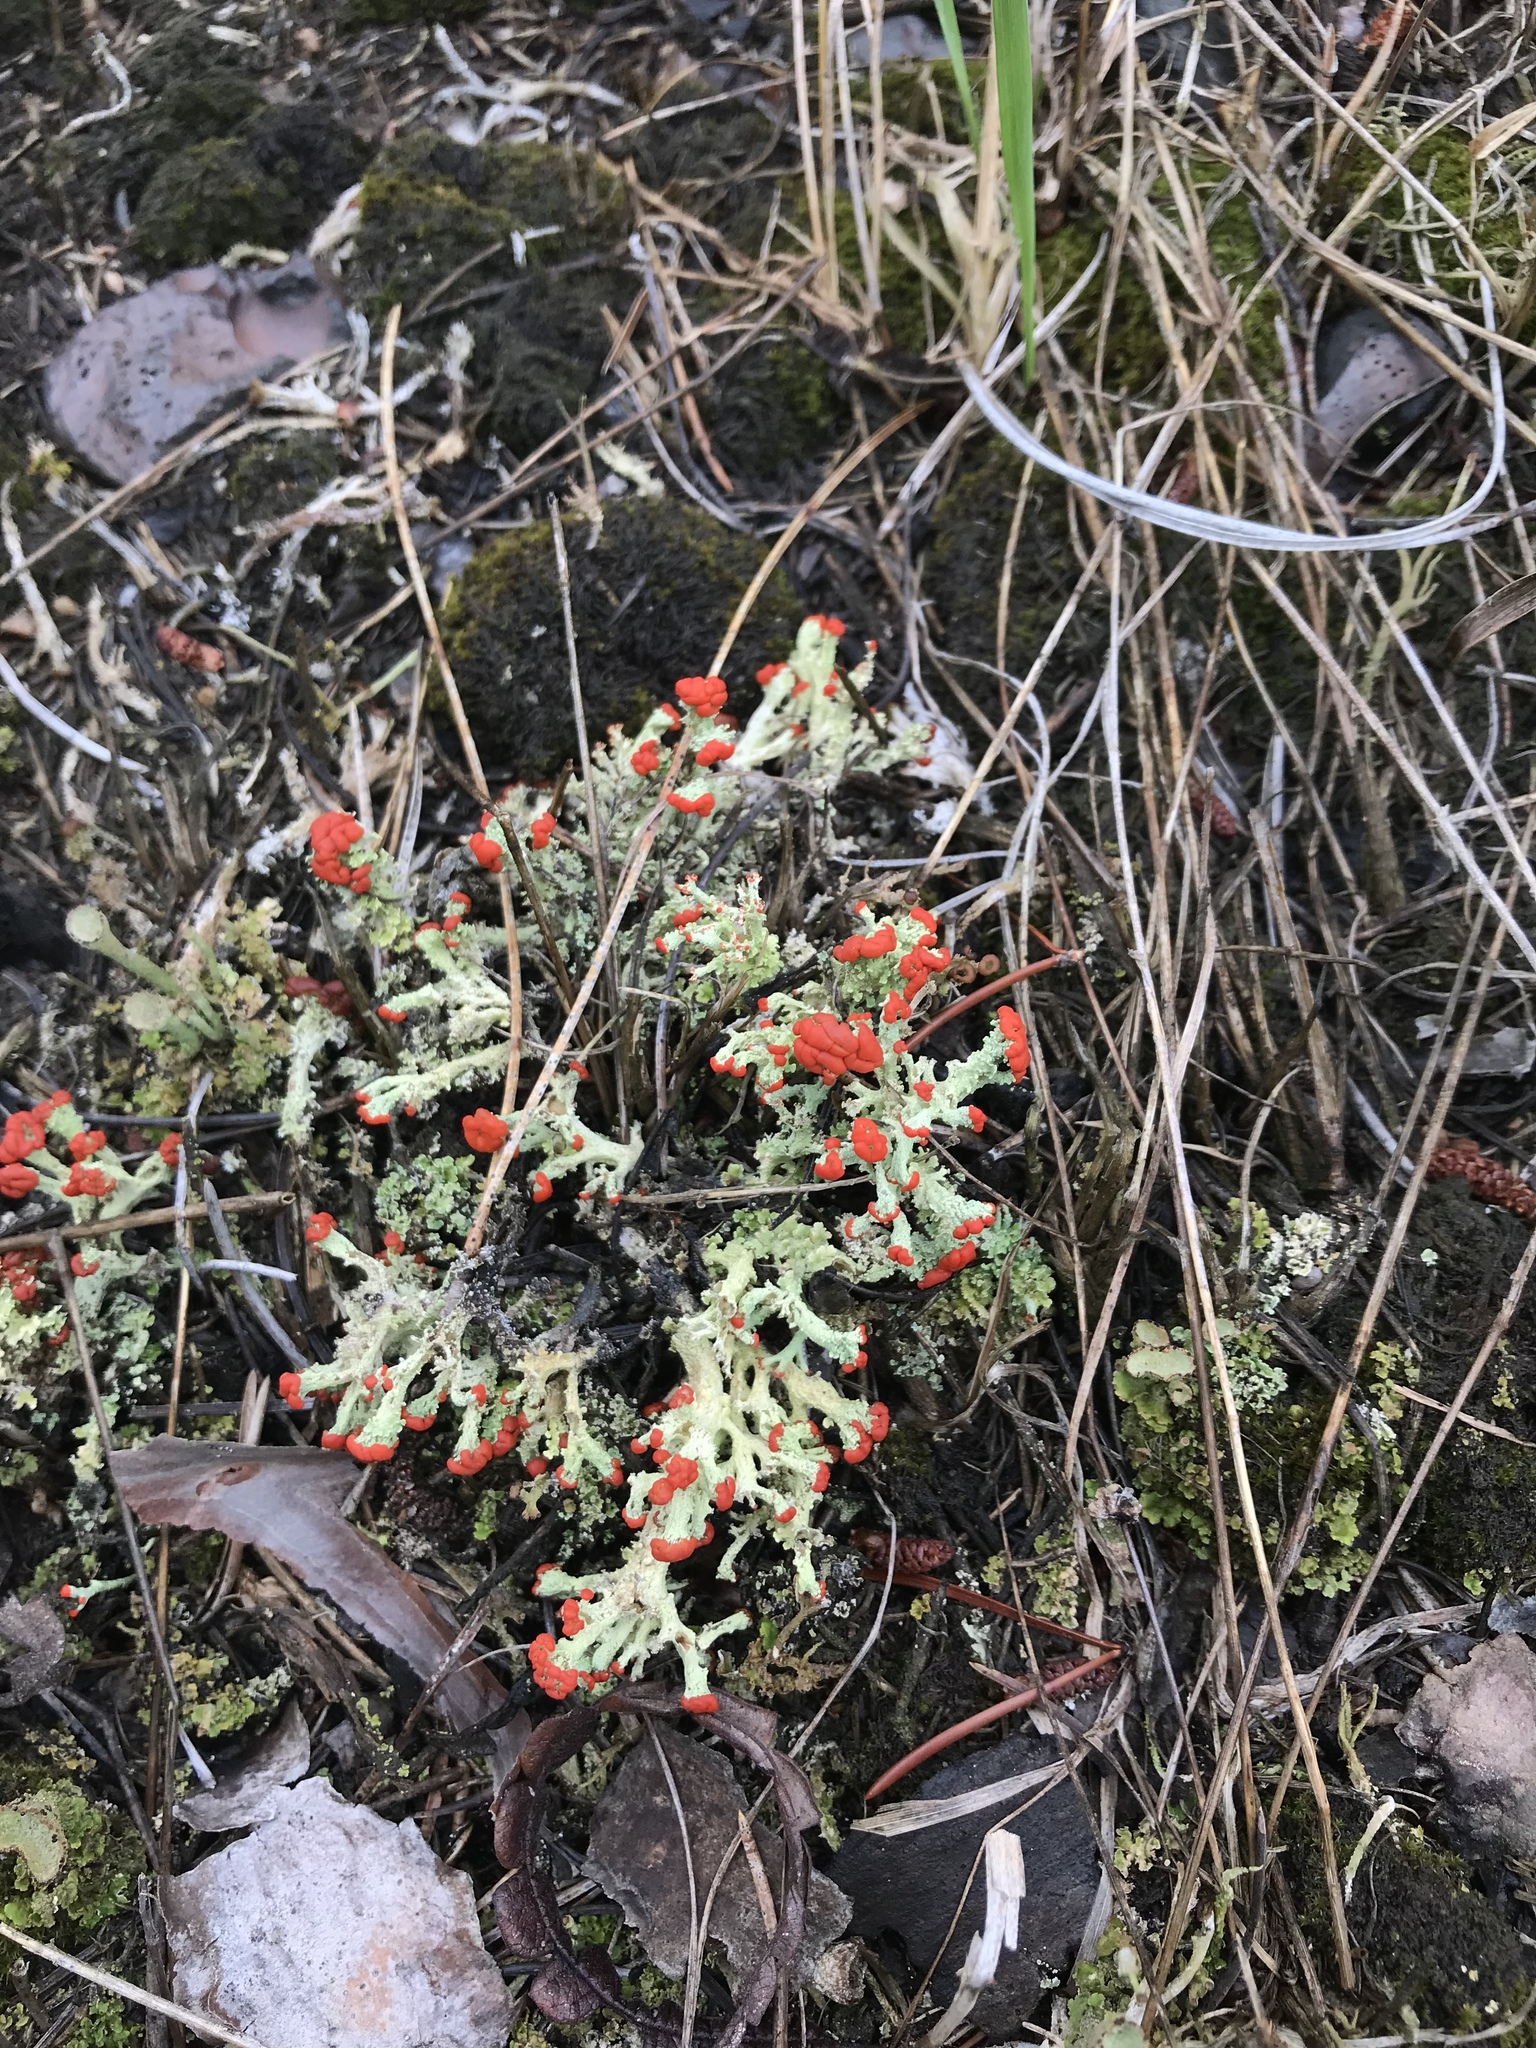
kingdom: Fungi
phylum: Ascomycota
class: Lecanoromycetes
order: Lecanorales
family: Cladoniaceae
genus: Cladonia
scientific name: Cladonia cristatella
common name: British soldier lichen
